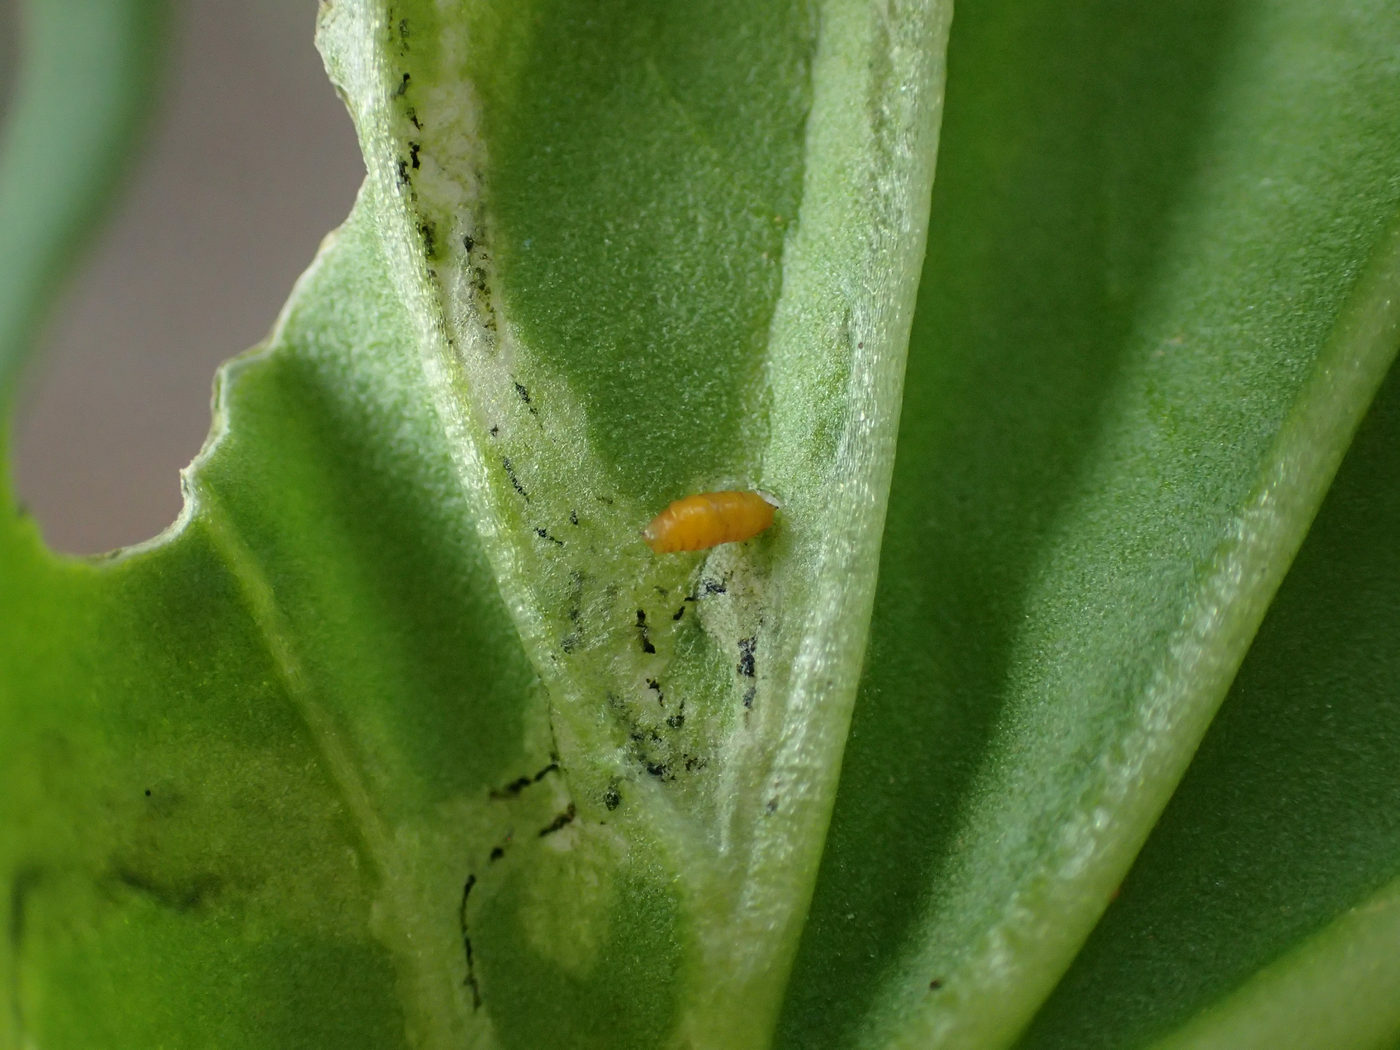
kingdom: Animalia
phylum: Arthropoda
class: Insecta
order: Diptera
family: Agromyzidae
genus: Liriomyza
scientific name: Liriomyza brassicae
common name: Serpentine leaf miner
